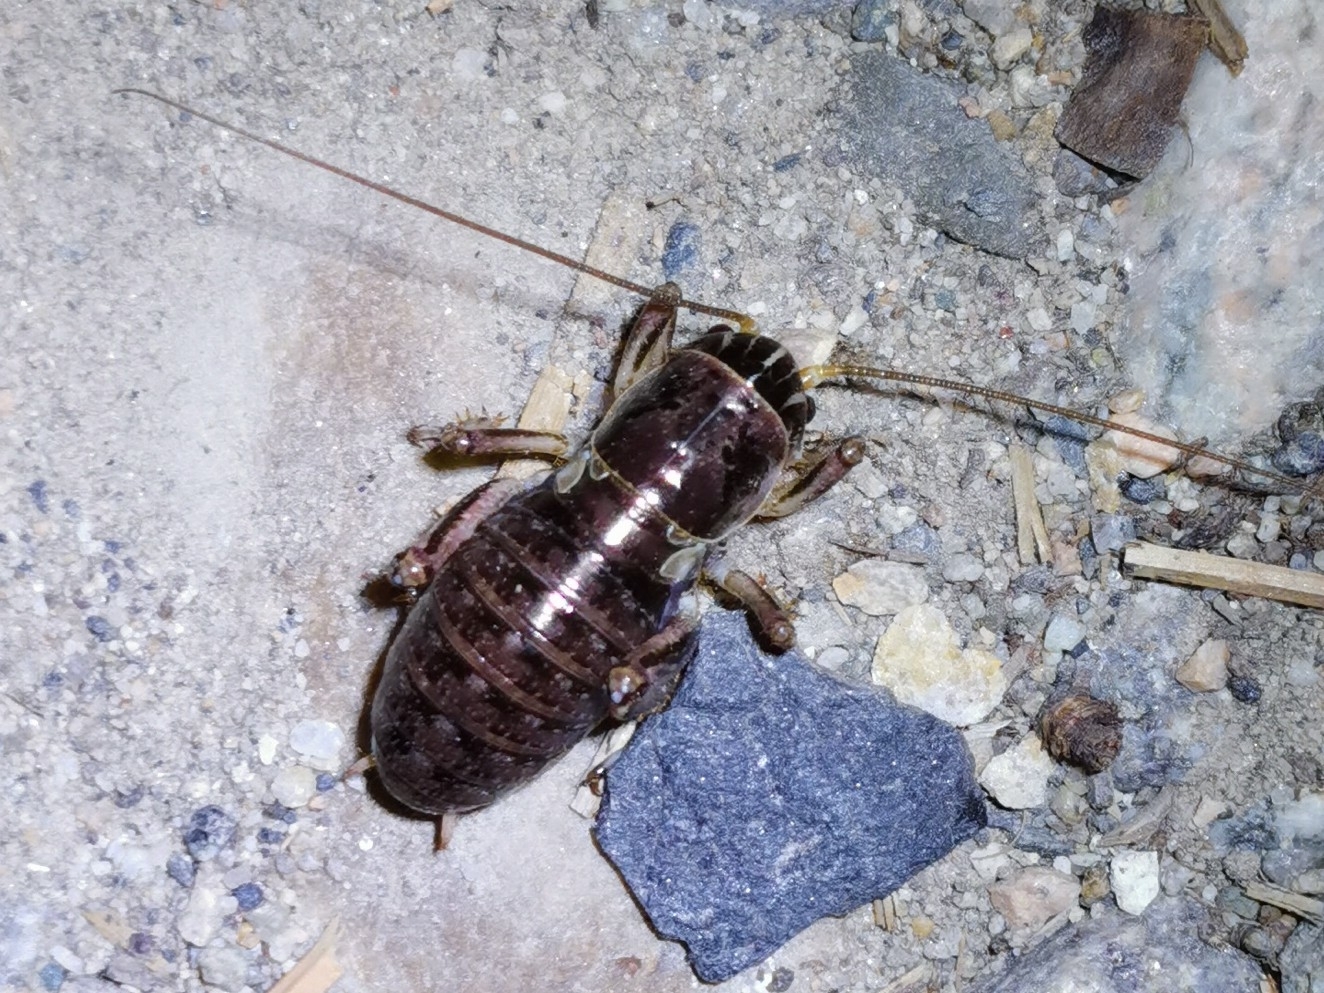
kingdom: Animalia
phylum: Arthropoda
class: Insecta
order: Orthoptera
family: Prophalangopsidae
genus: Cyphoderris
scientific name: Cyphoderris buckelli
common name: Buckell’s grig
